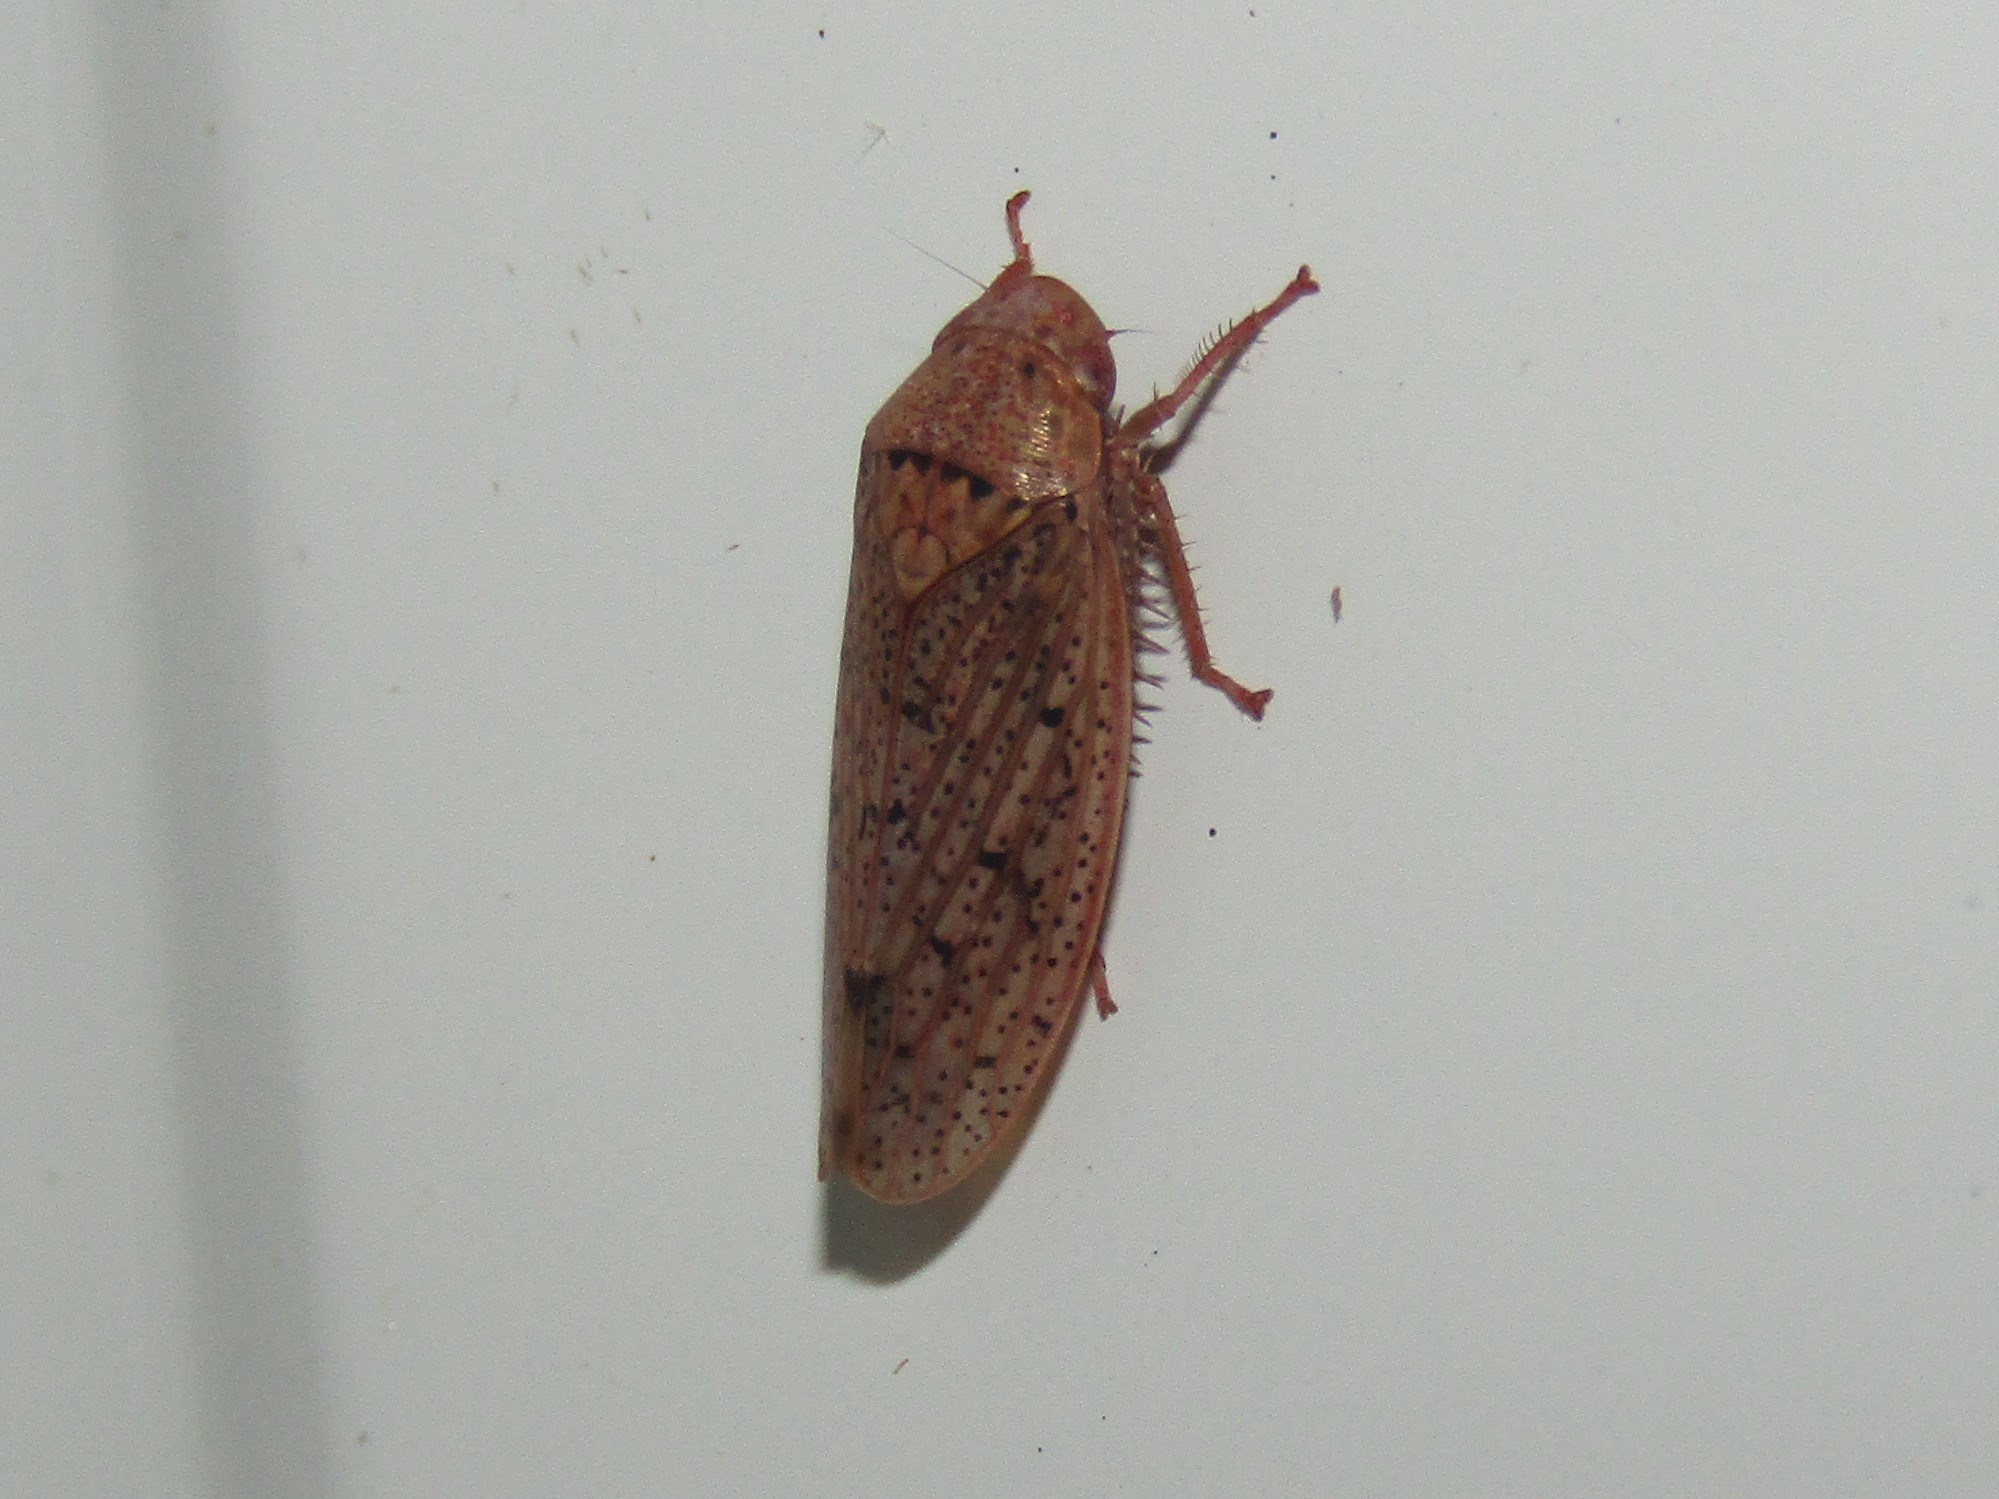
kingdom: Animalia
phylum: Arthropoda
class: Insecta
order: Hemiptera
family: Cicadellidae
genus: Ponana
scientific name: Ponana puncticollis
